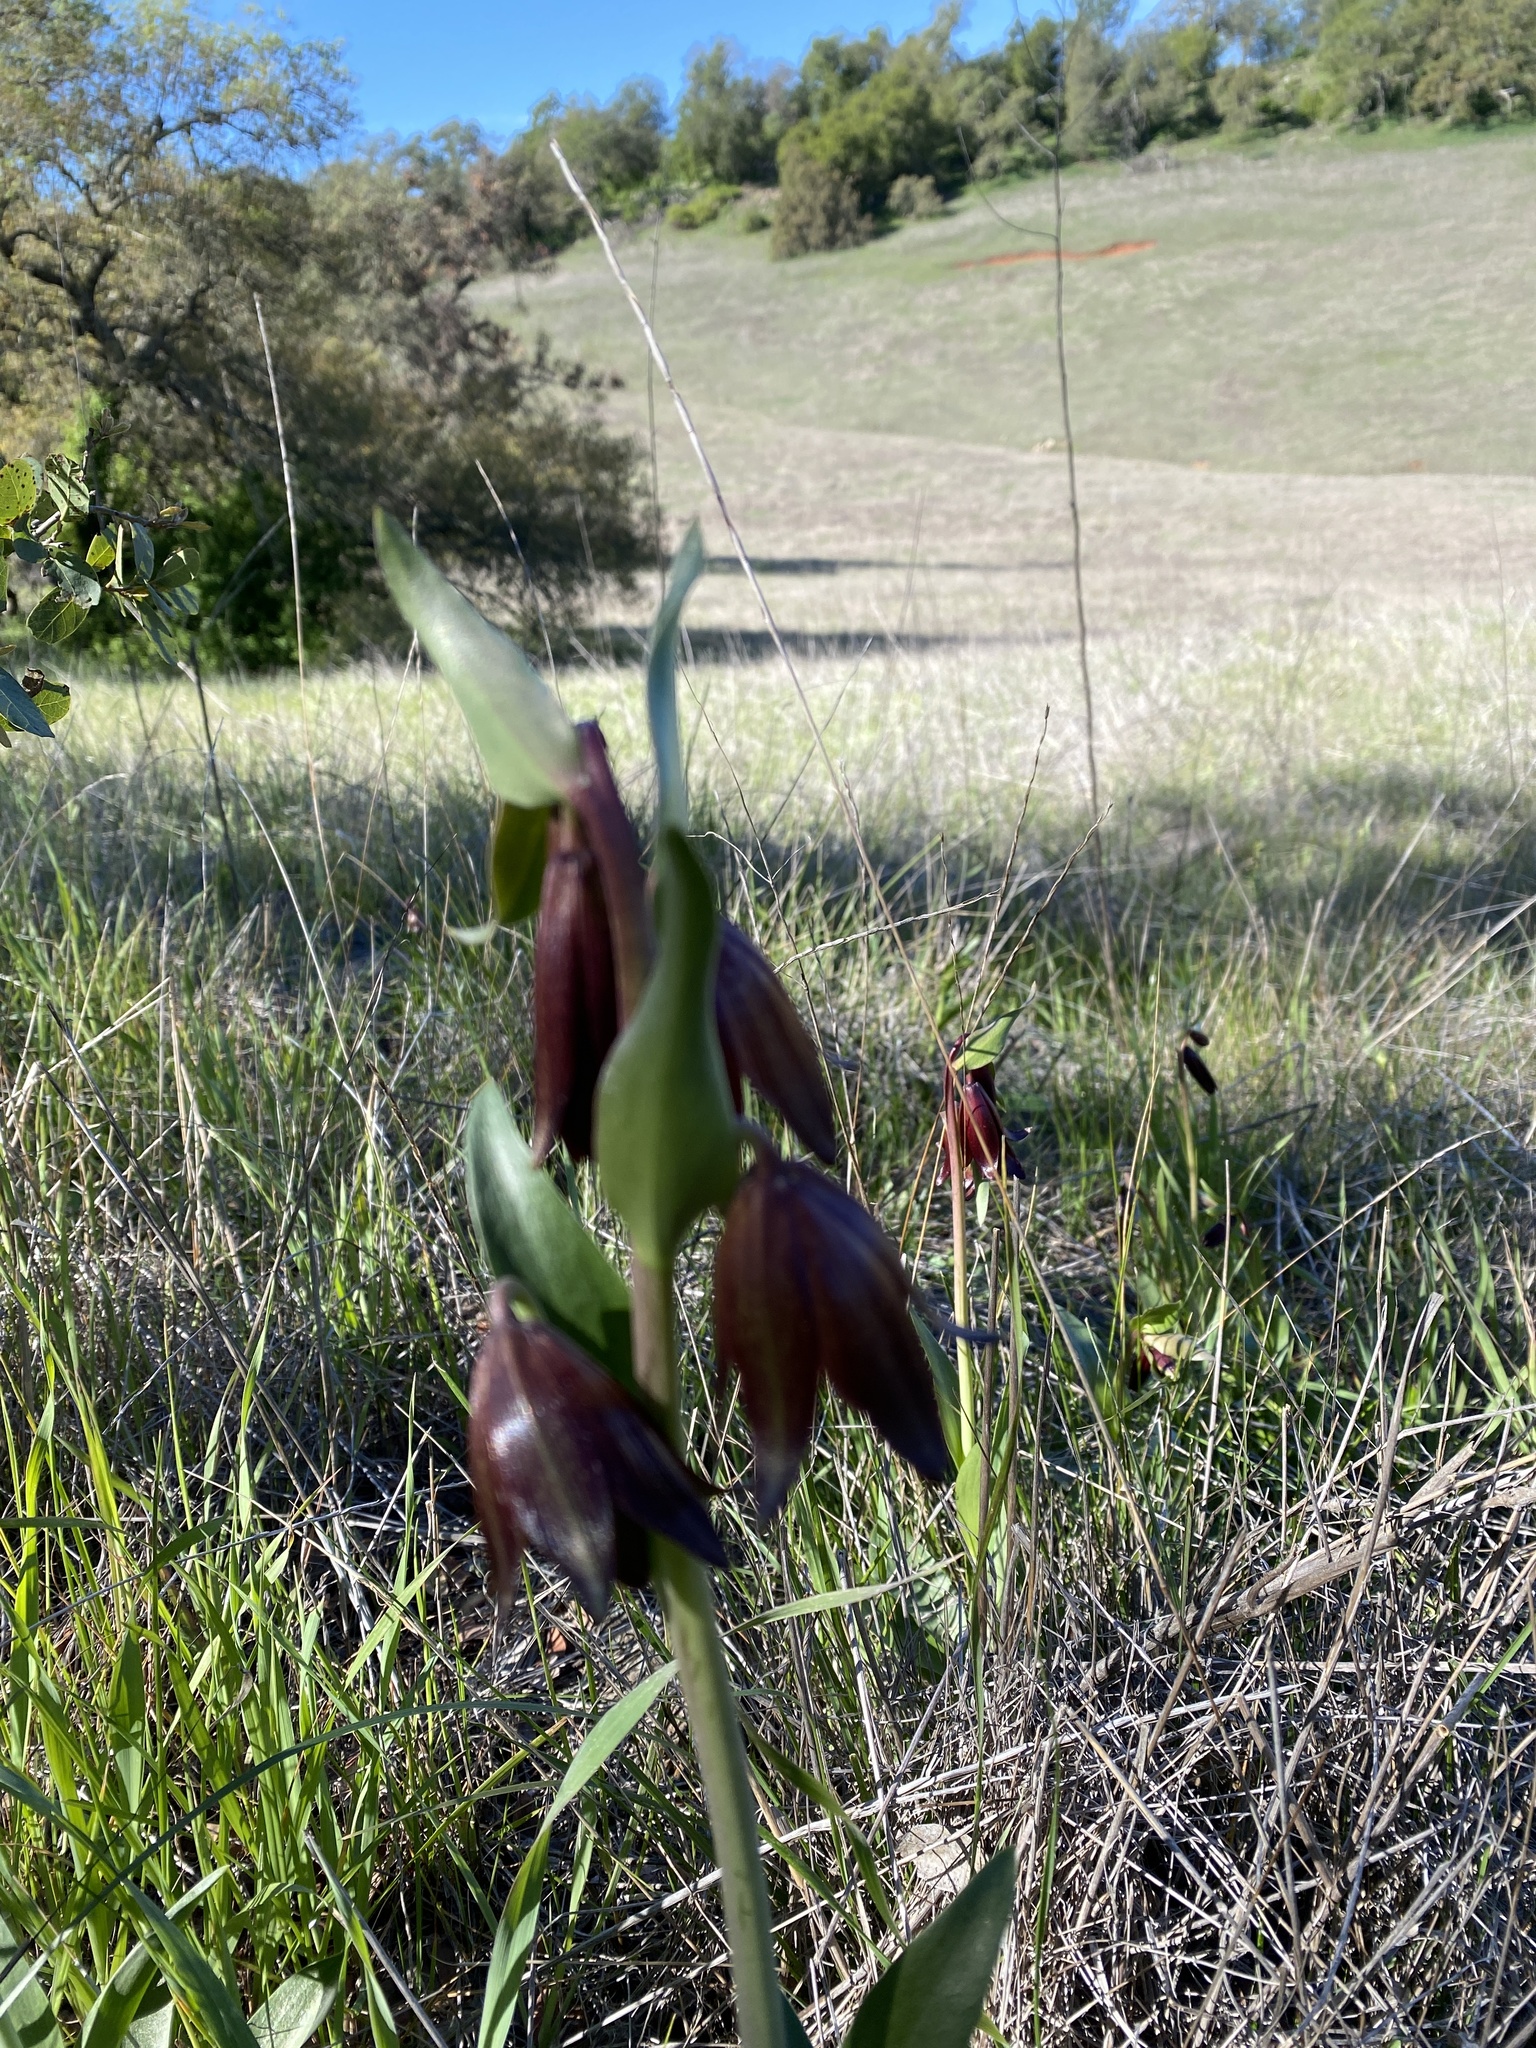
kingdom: Plantae
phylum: Tracheophyta
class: Liliopsida
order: Liliales
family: Liliaceae
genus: Fritillaria
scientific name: Fritillaria biflora
